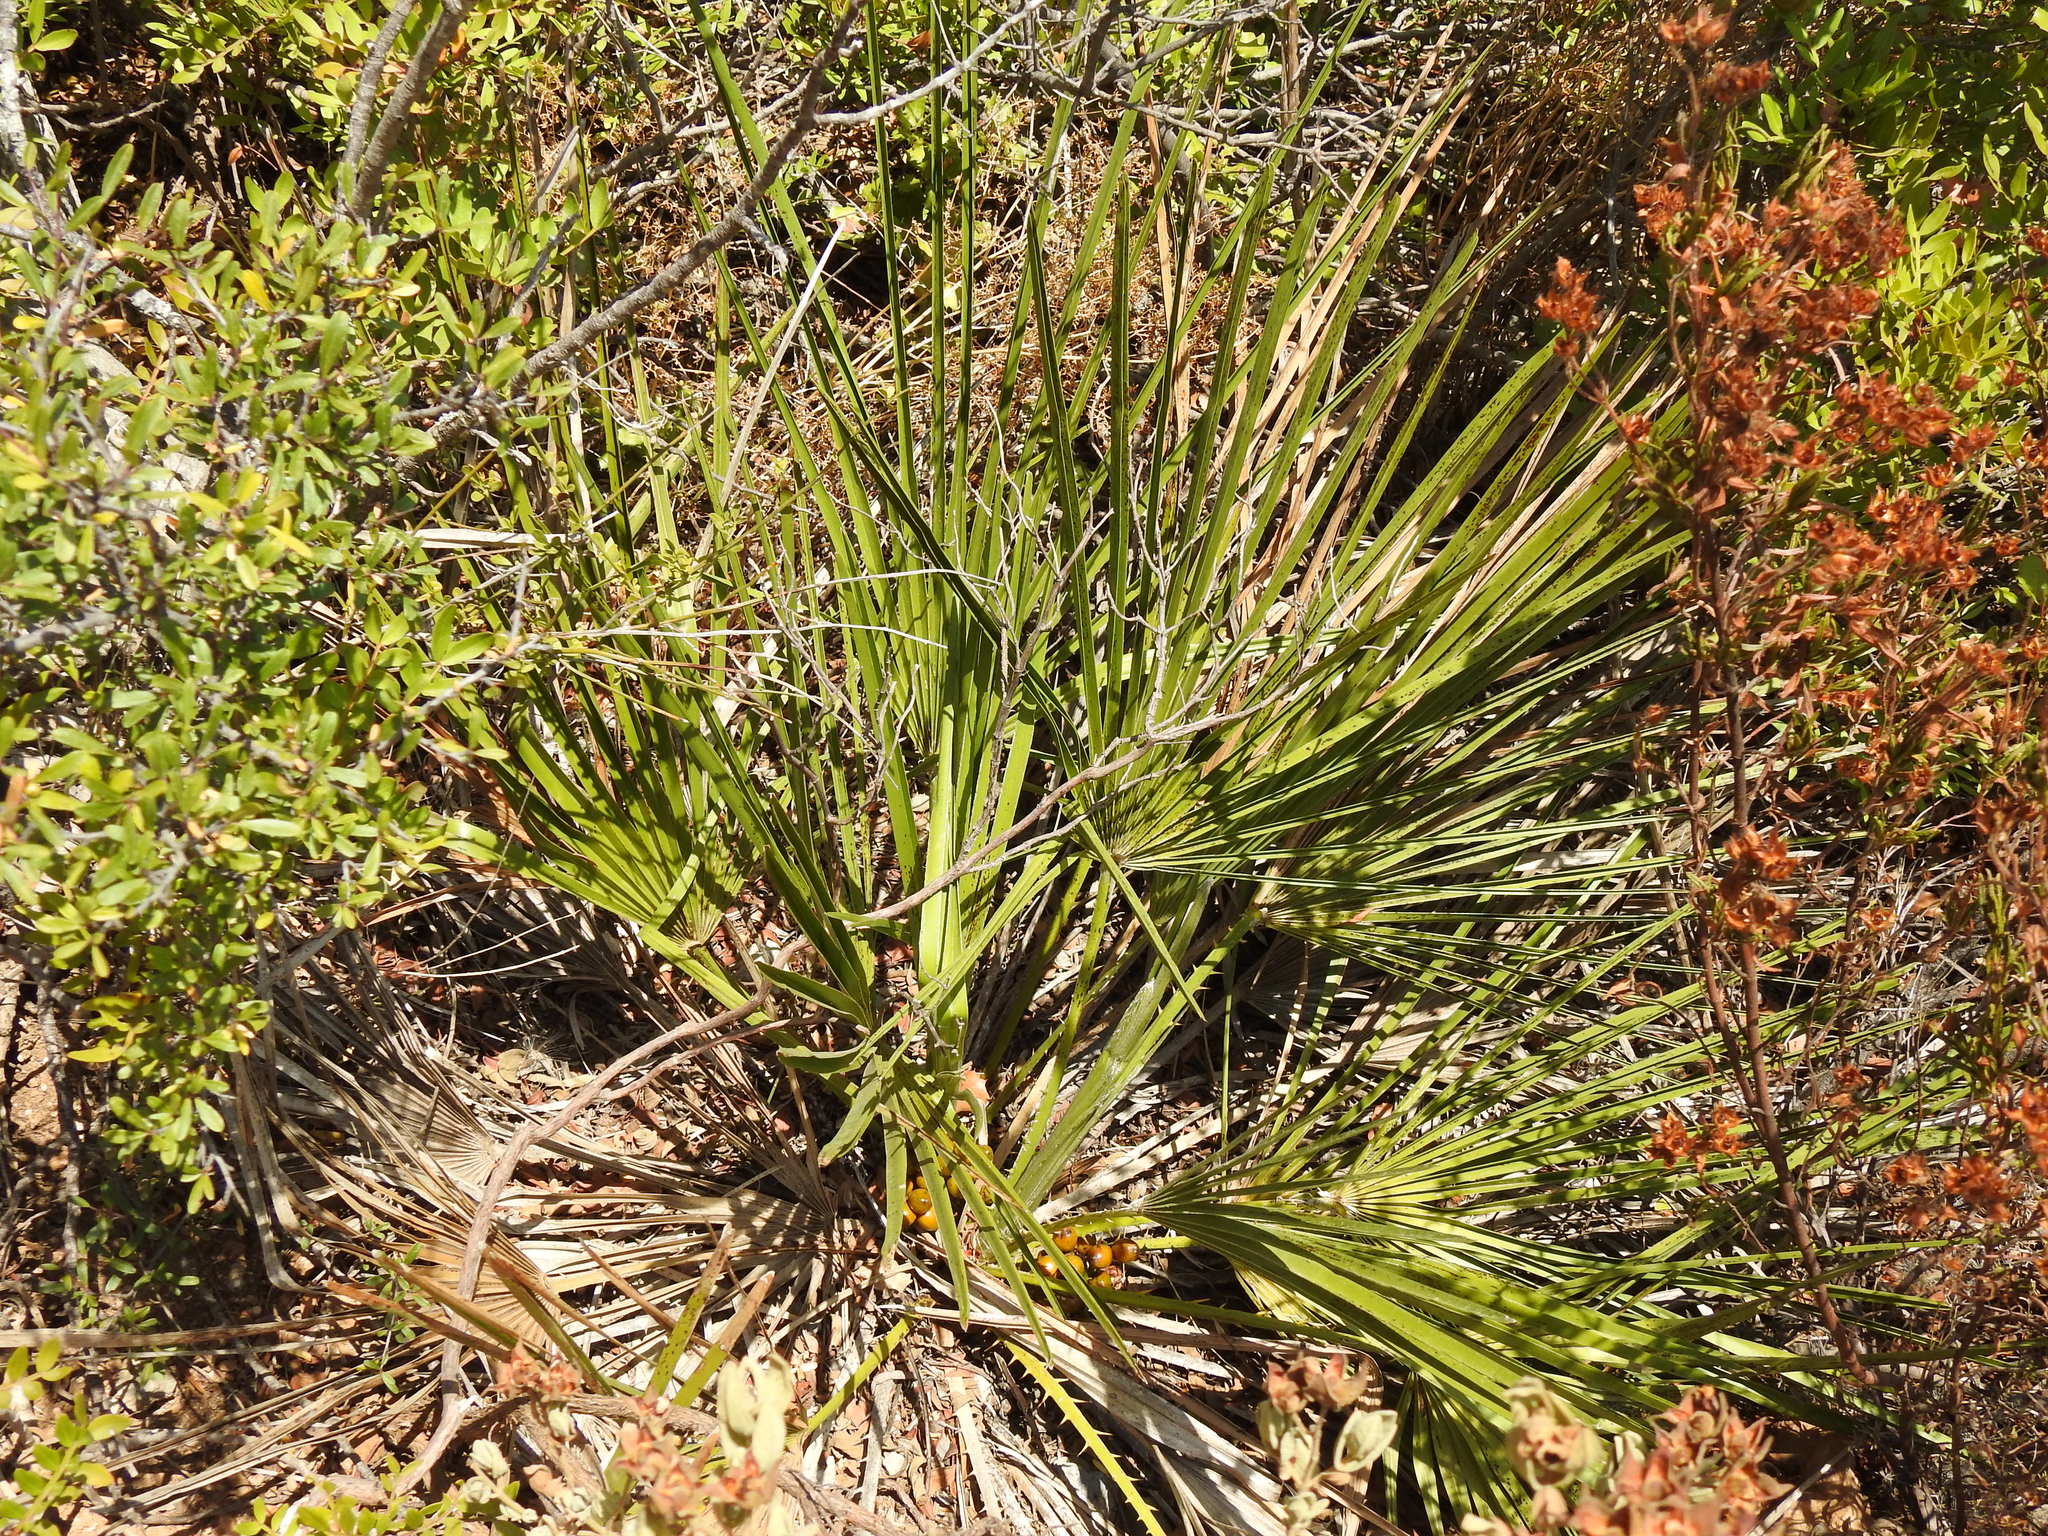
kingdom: Plantae
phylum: Tracheophyta
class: Liliopsida
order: Arecales
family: Arecaceae
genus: Chamaerops
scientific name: Chamaerops humilis
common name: Dwarf fan palm
